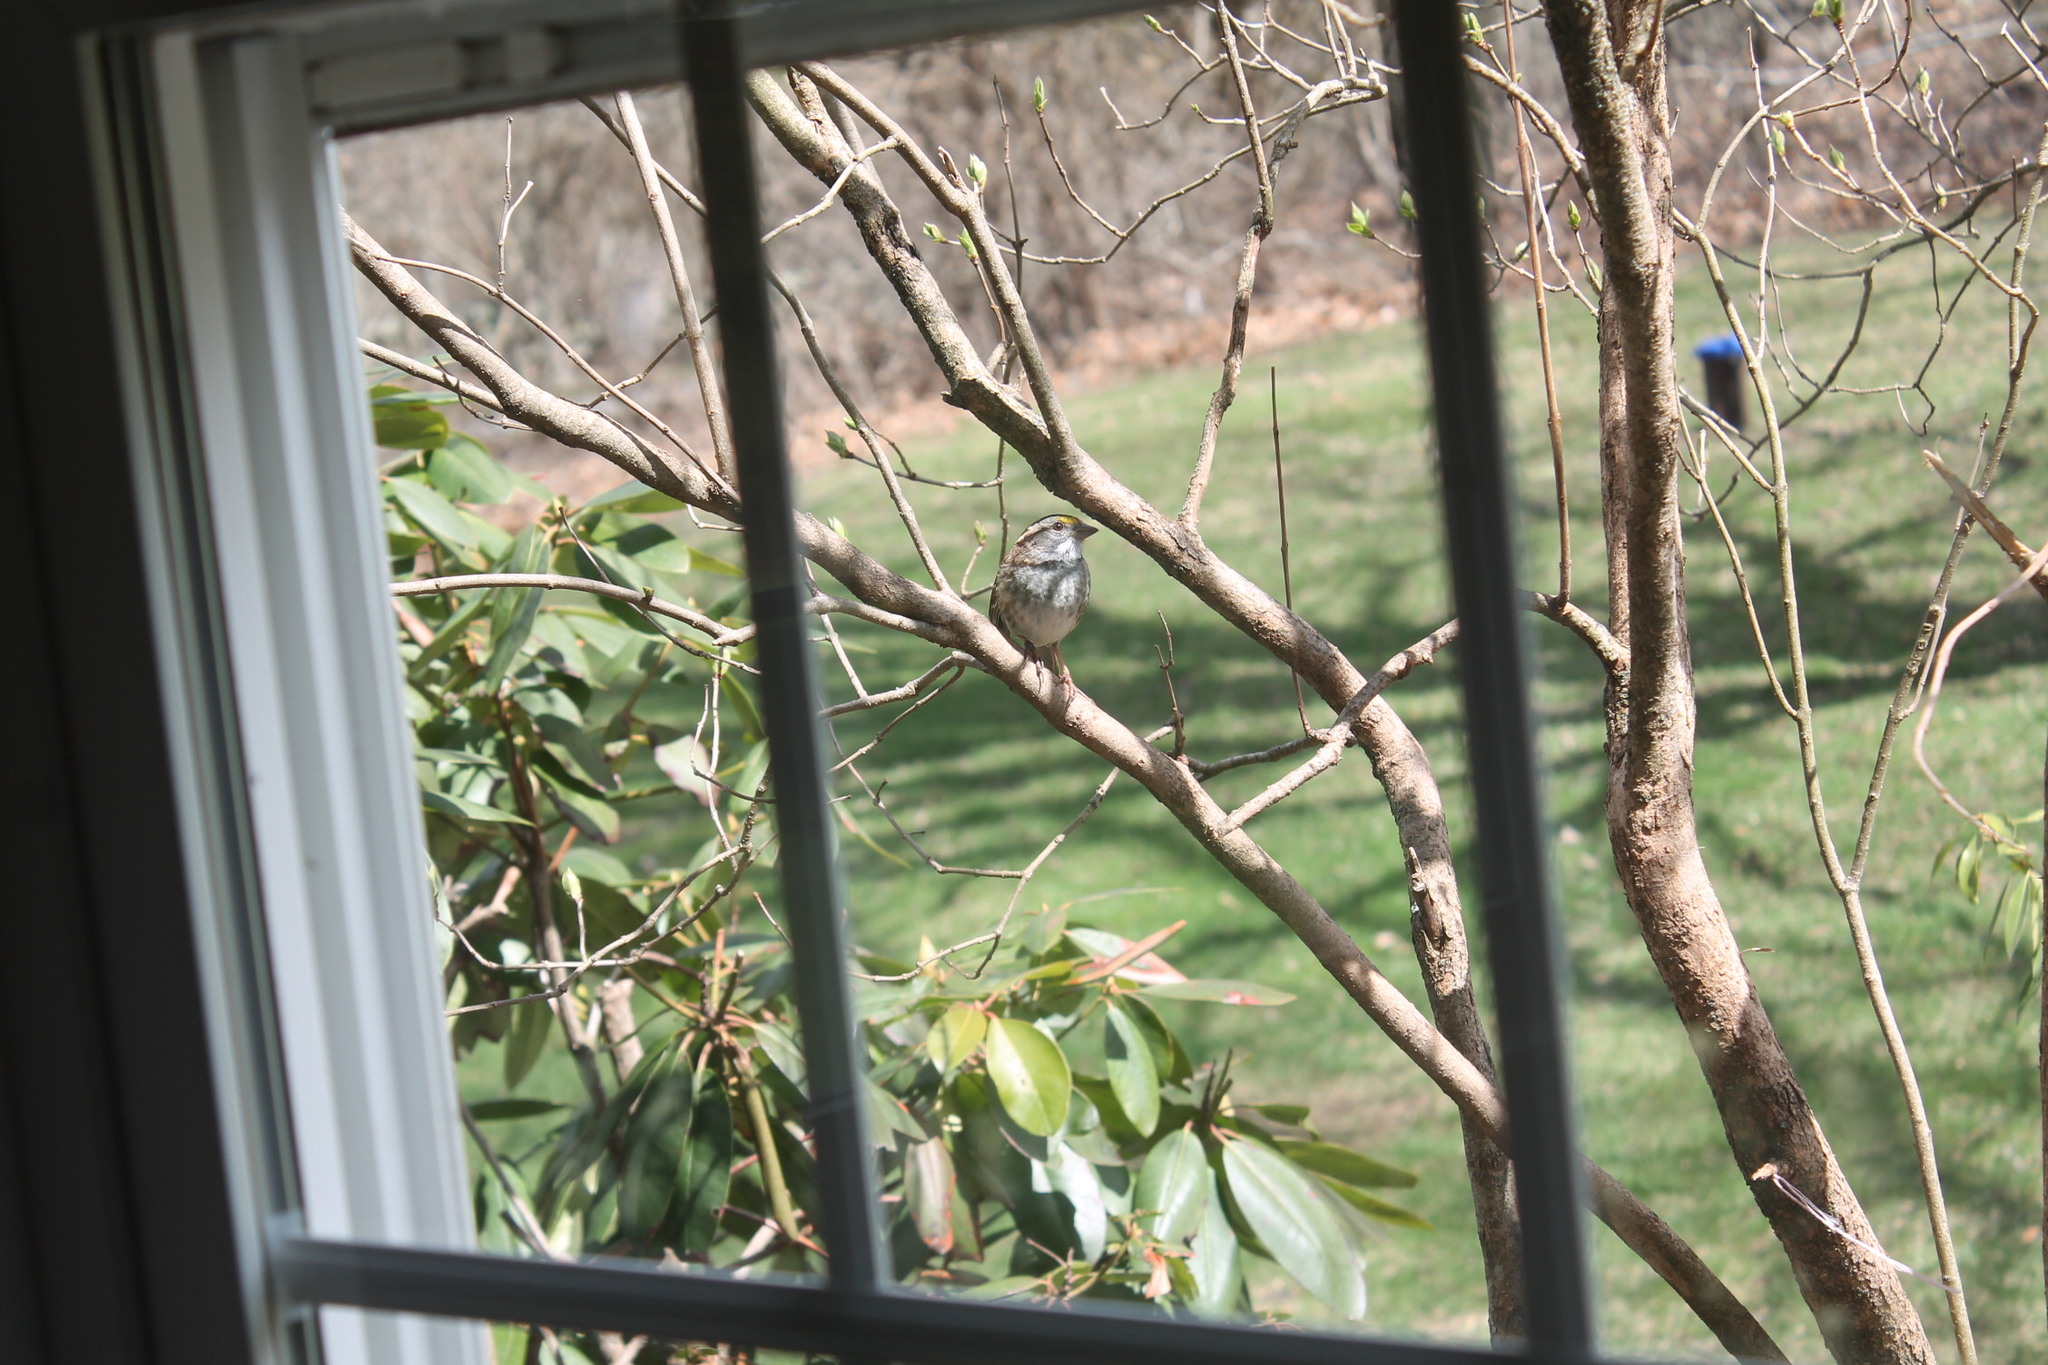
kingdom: Animalia
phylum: Chordata
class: Aves
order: Passeriformes
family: Passerellidae
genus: Zonotrichia
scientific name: Zonotrichia albicollis
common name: White-throated sparrow
